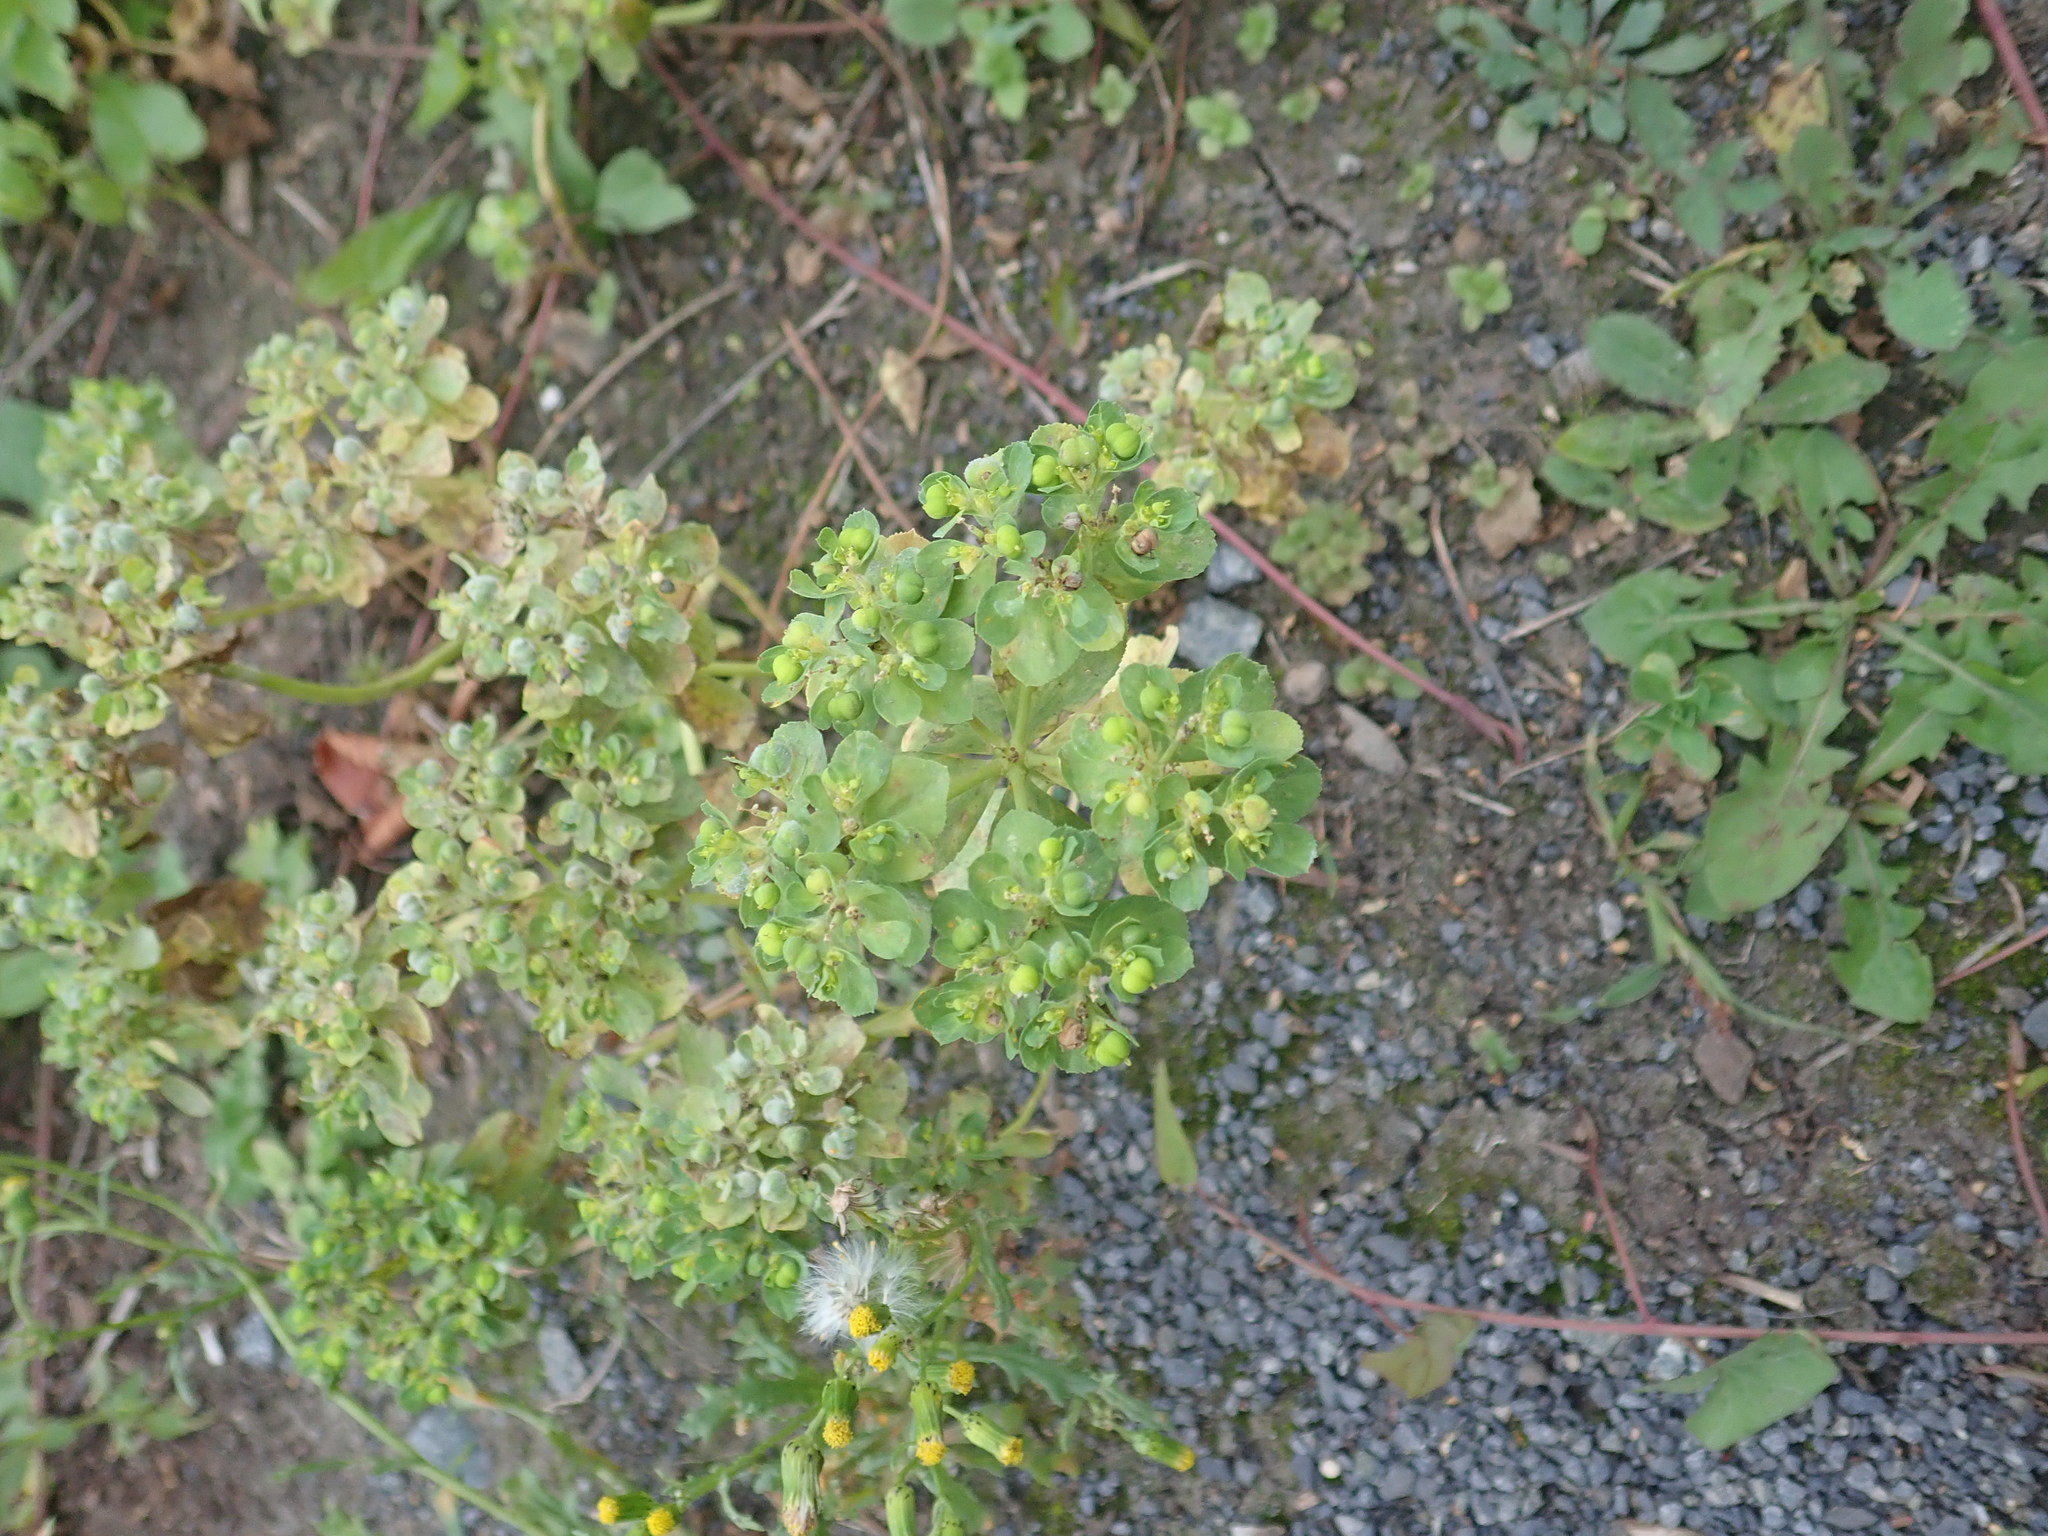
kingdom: Plantae
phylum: Tracheophyta
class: Magnoliopsida
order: Malpighiales
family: Euphorbiaceae
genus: Euphorbia
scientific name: Euphorbia helioscopia
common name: Sun spurge
